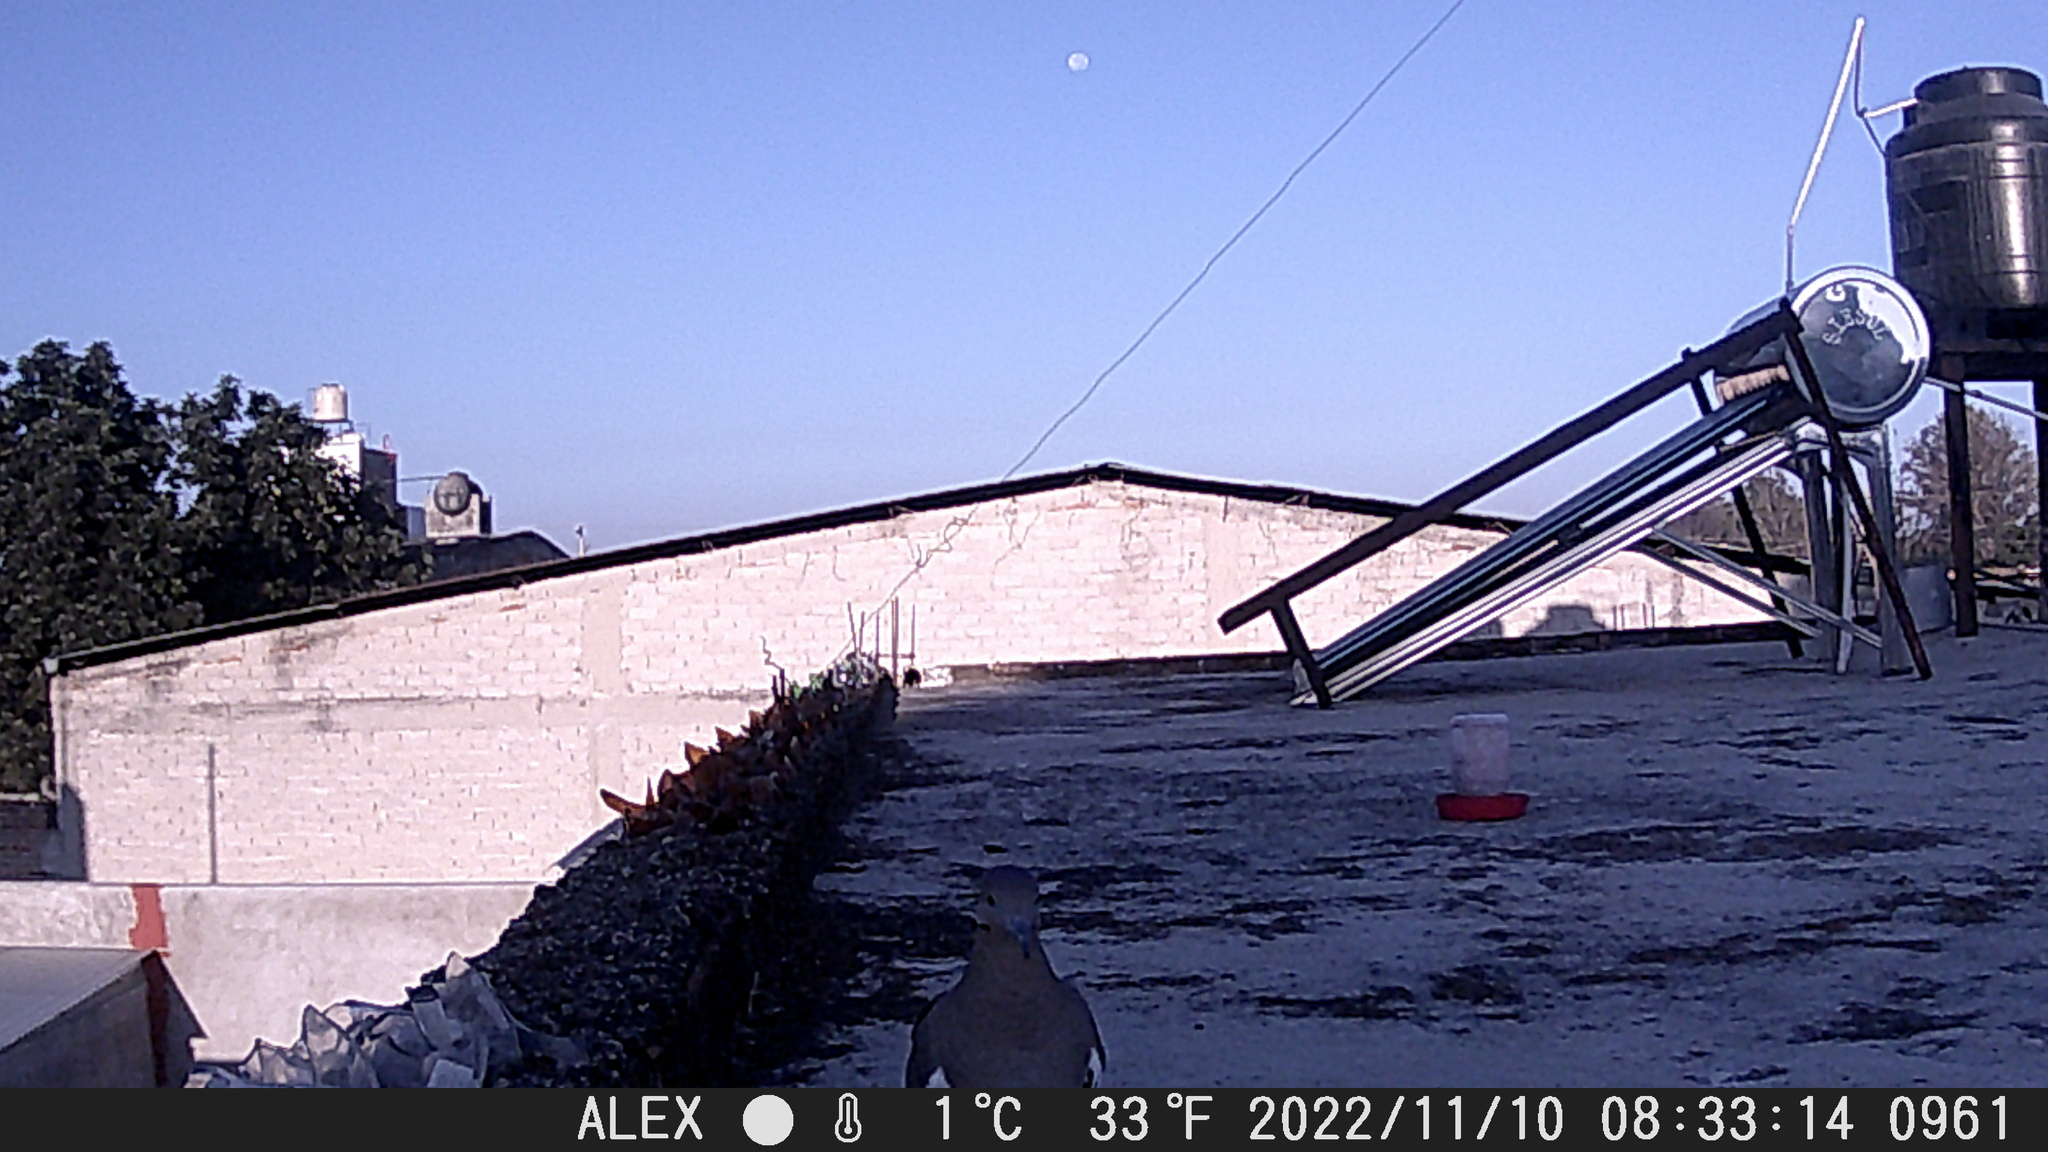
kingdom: Animalia
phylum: Chordata
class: Aves
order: Columbiformes
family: Columbidae
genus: Zenaida
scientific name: Zenaida asiatica
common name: White-winged dove
